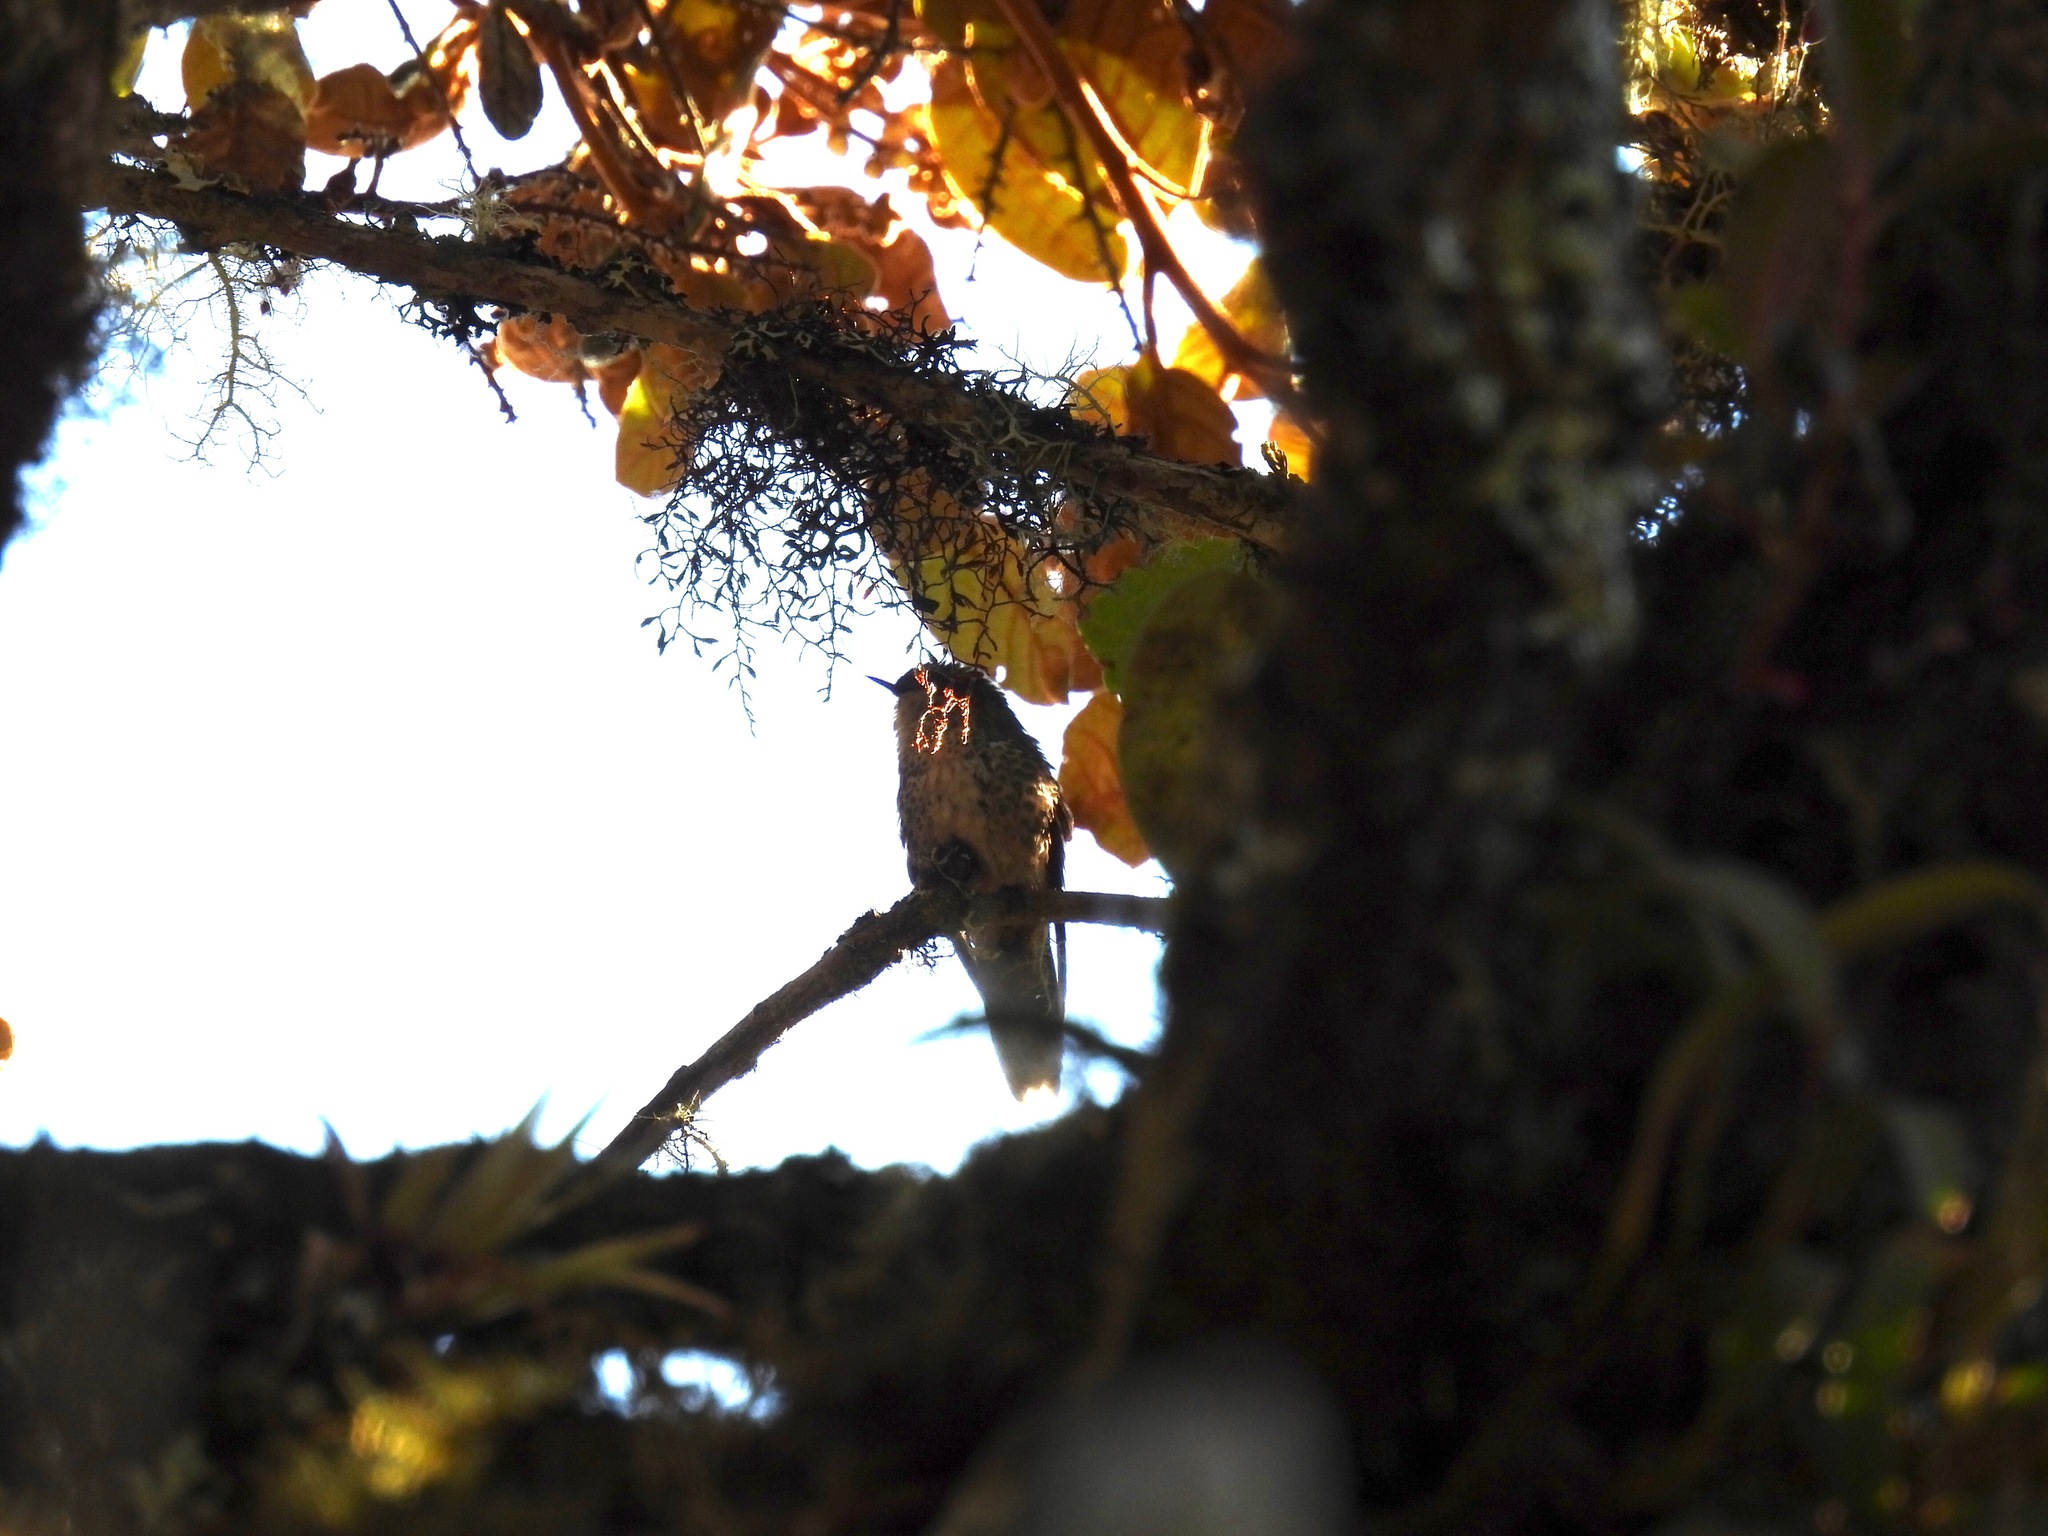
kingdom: Animalia
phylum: Chordata
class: Aves
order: Apodiformes
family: Trochilidae
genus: Metallura
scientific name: Metallura tyrianthina
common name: Tyrian metaltail
